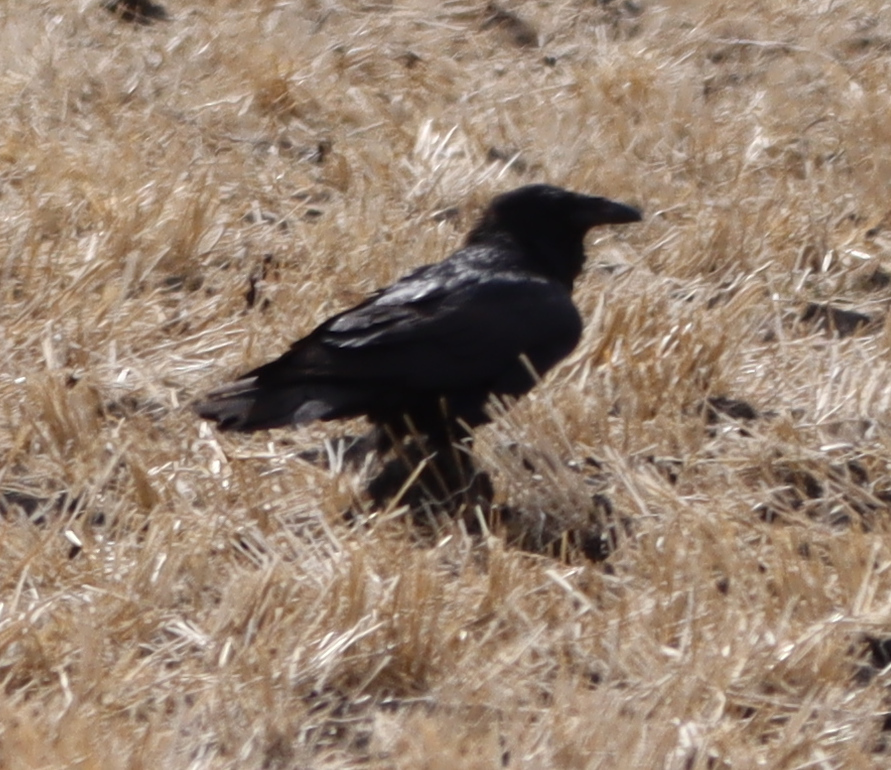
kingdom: Animalia
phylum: Chordata
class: Aves
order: Passeriformes
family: Corvidae
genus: Corvus
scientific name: Corvus corax
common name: Common raven
